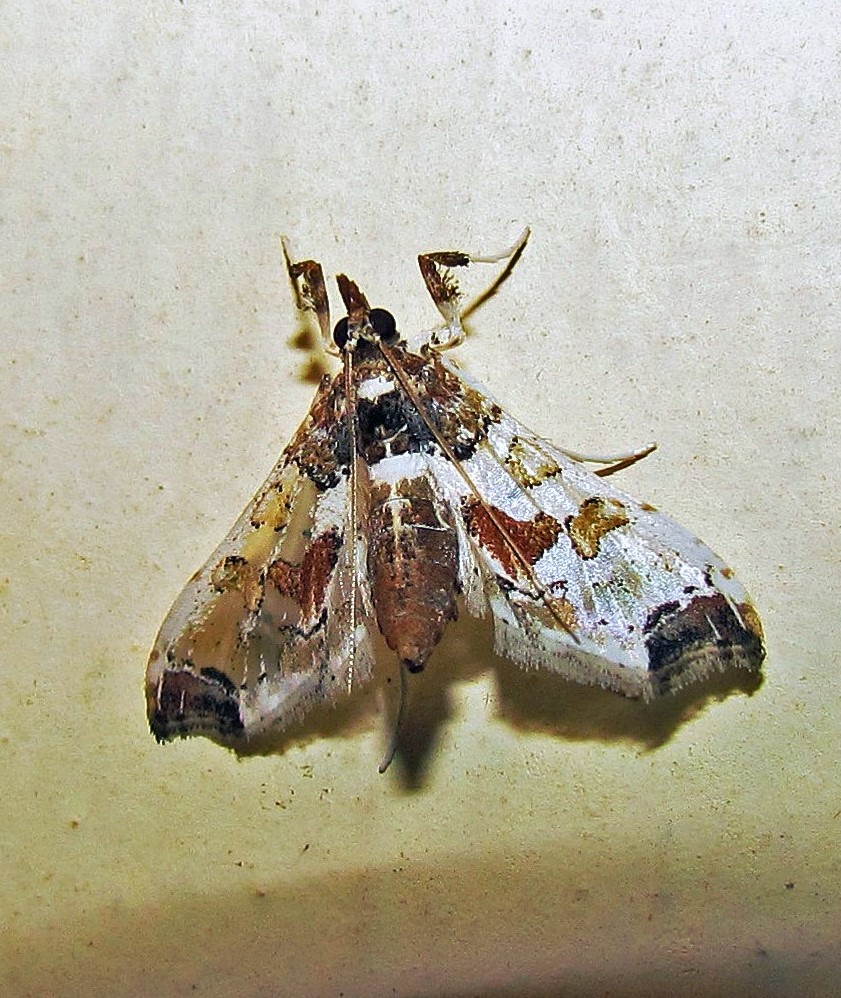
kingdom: Animalia
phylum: Arthropoda
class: Insecta
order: Lepidoptera
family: Crambidae
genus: Neoleucinodes
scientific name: Neoleucinodes elegantalis
